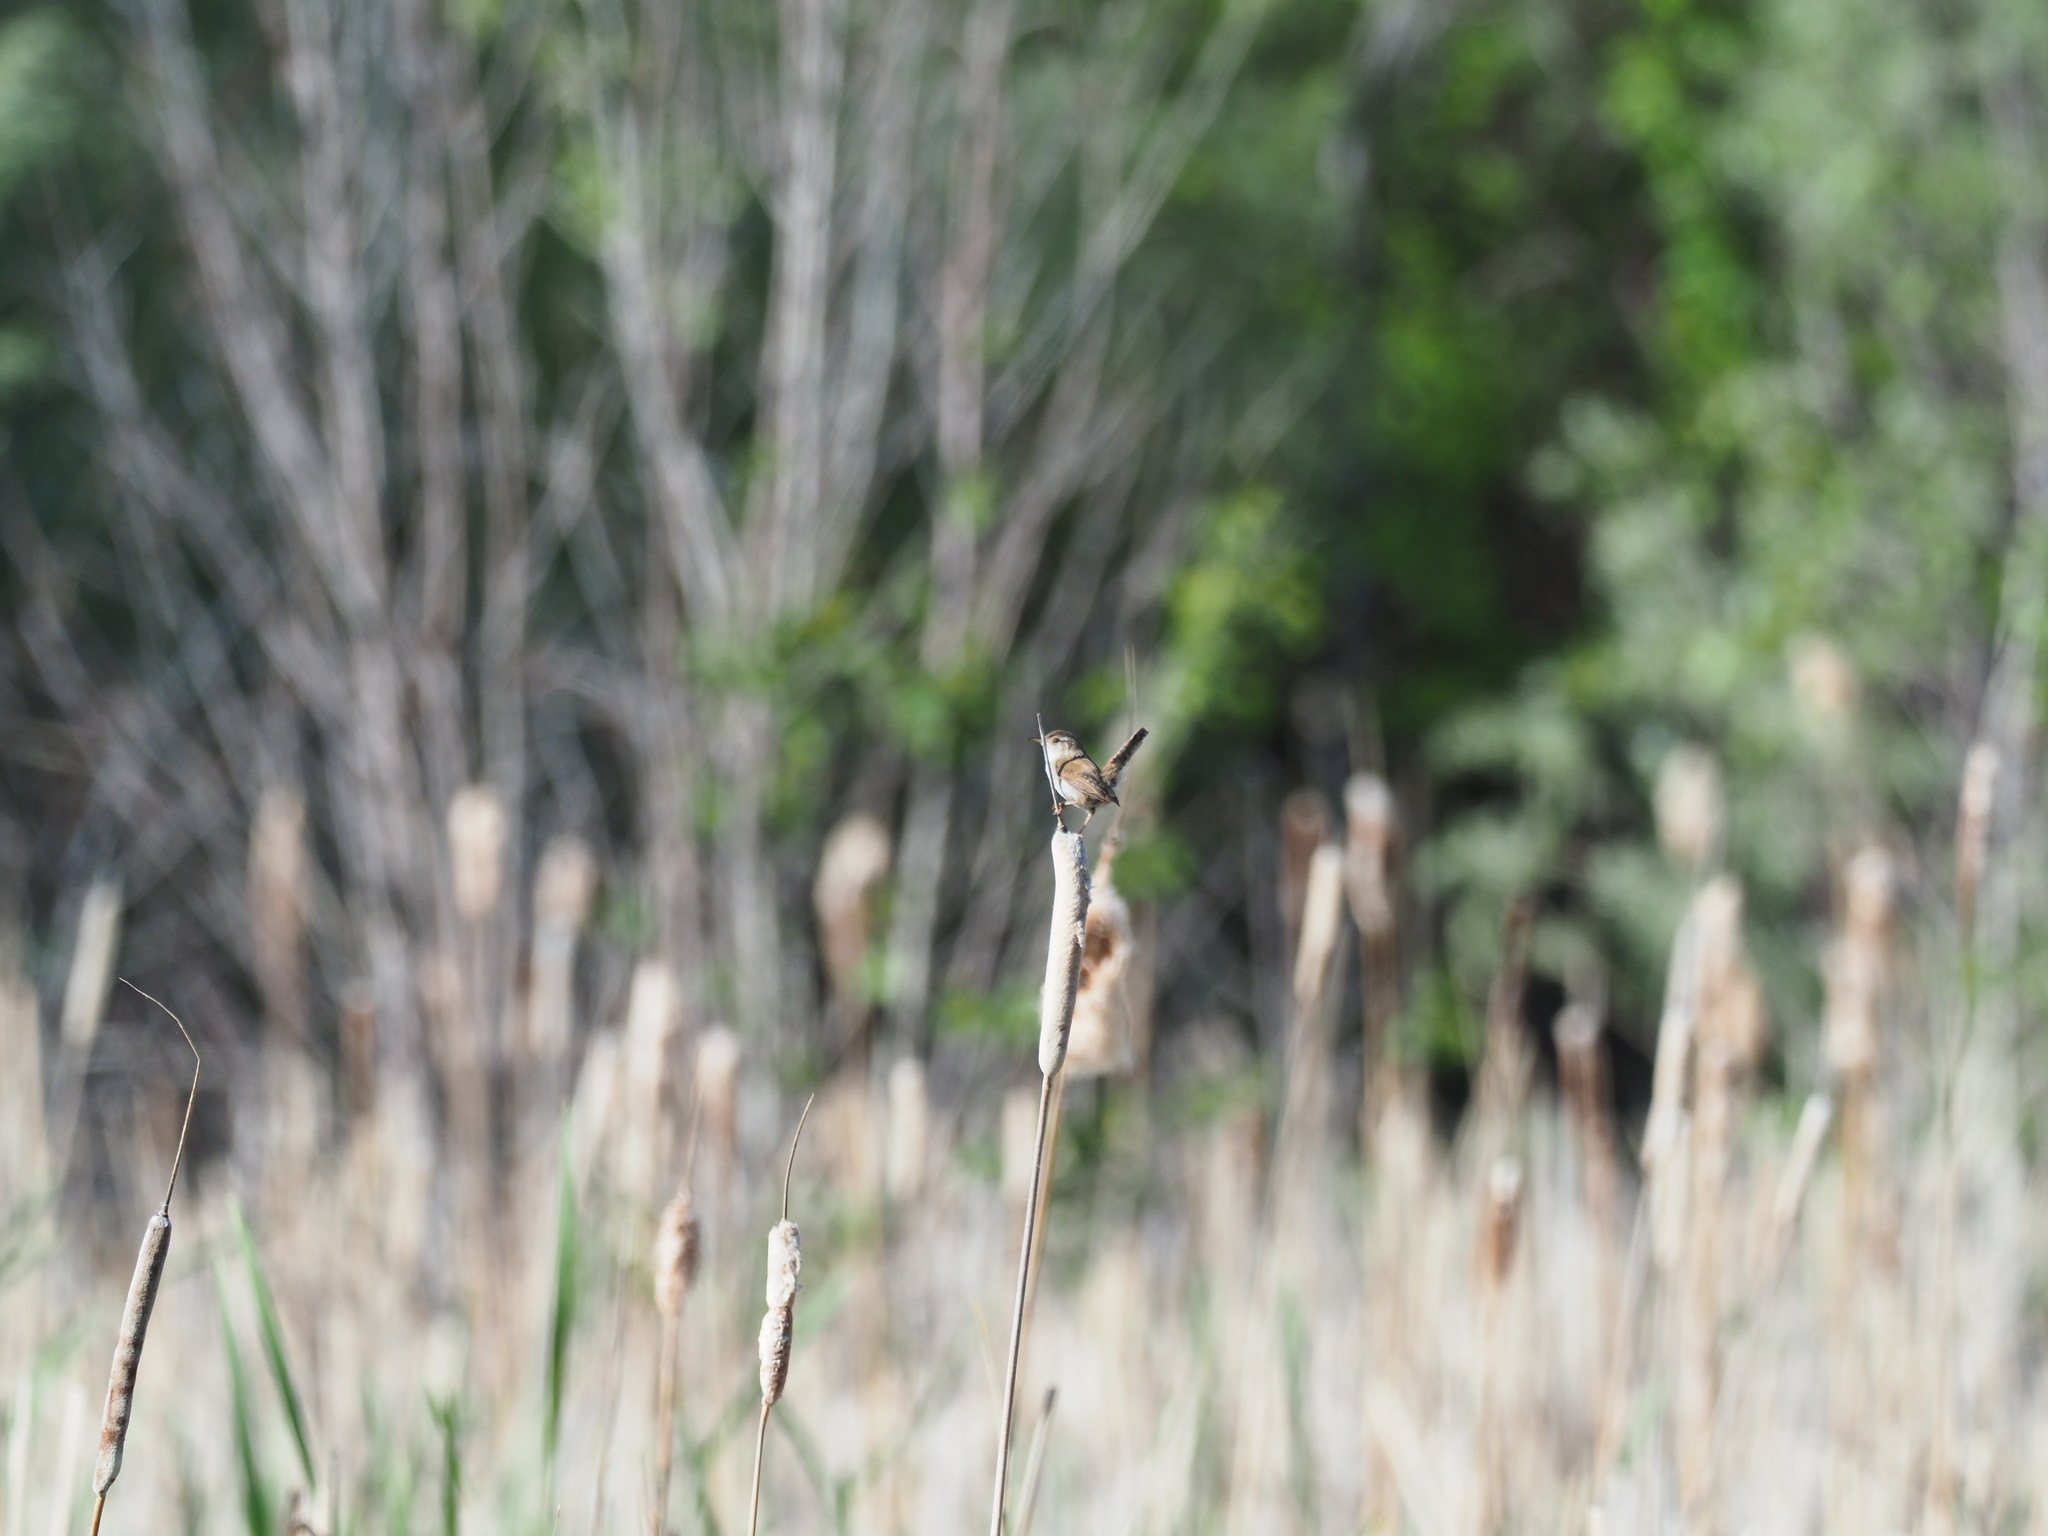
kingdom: Animalia
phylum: Chordata
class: Aves
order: Passeriformes
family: Troglodytidae
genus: Cistothorus
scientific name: Cistothorus palustris
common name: Marsh wren
